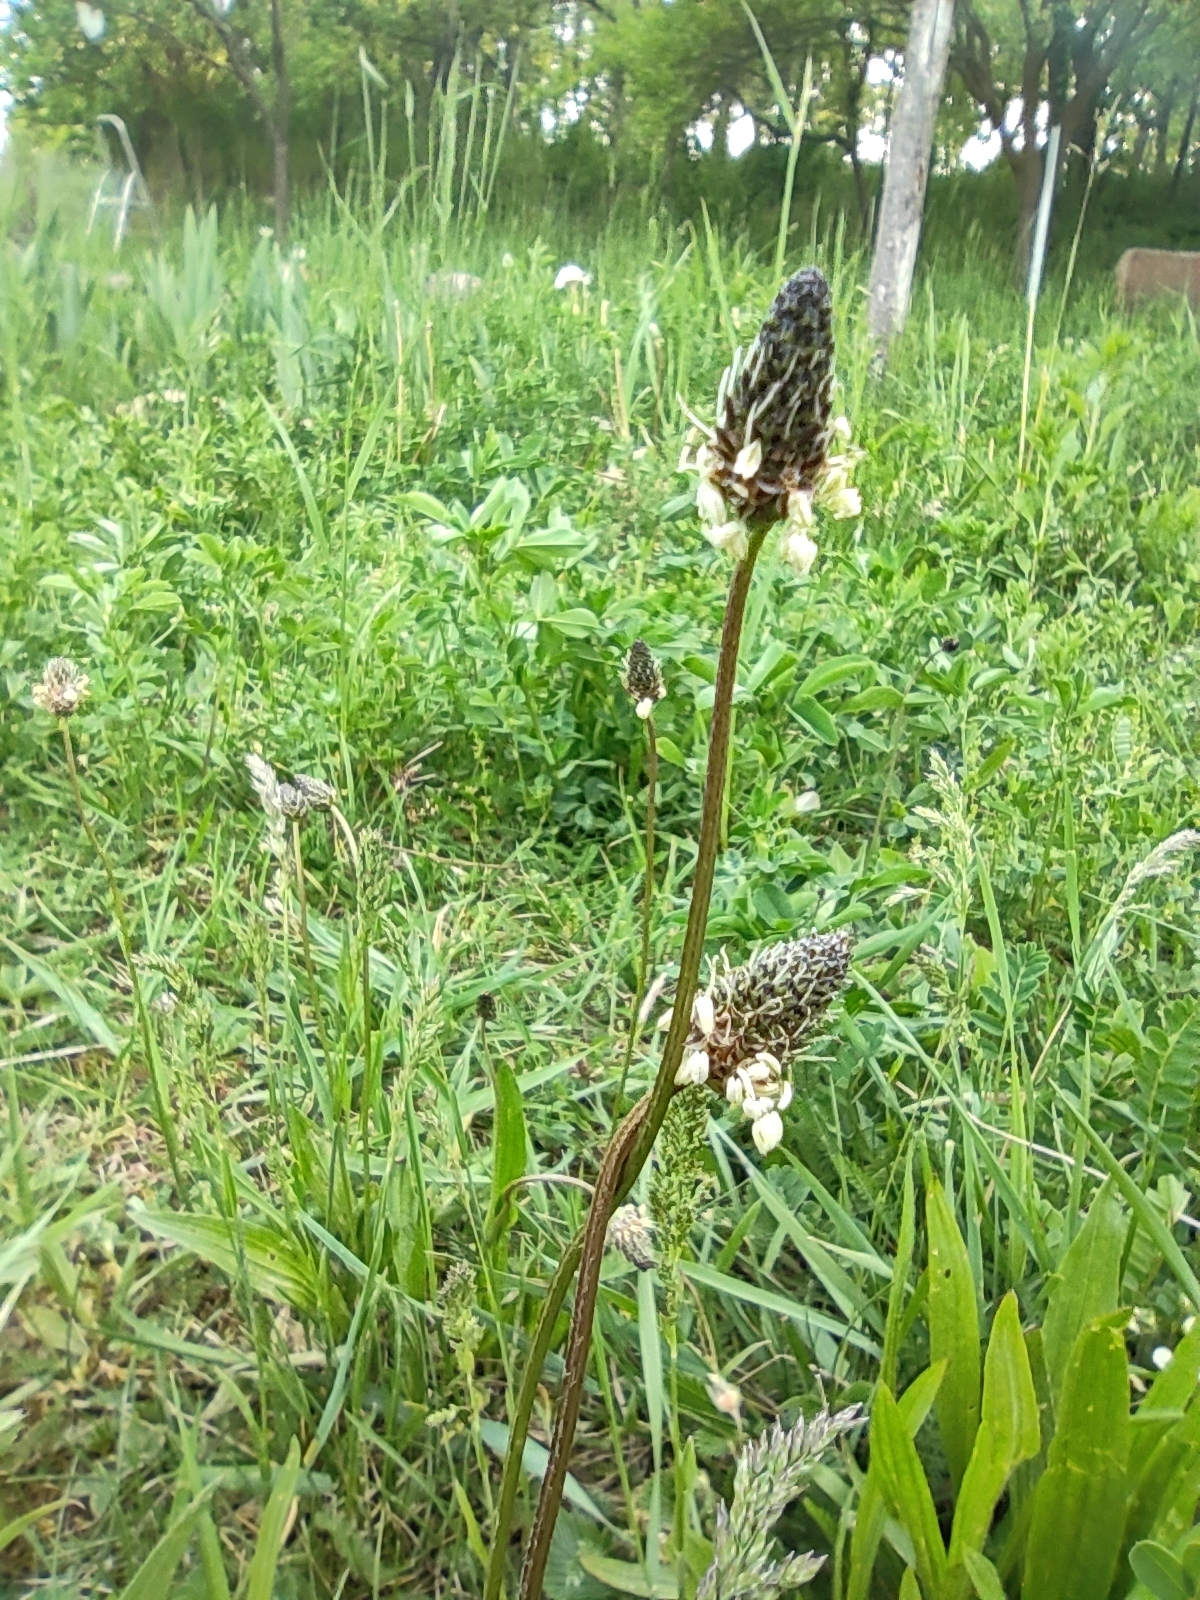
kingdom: Plantae
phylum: Tracheophyta
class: Magnoliopsida
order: Lamiales
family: Plantaginaceae
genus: Plantago
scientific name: Plantago lanceolata
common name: Ribwort plantain
